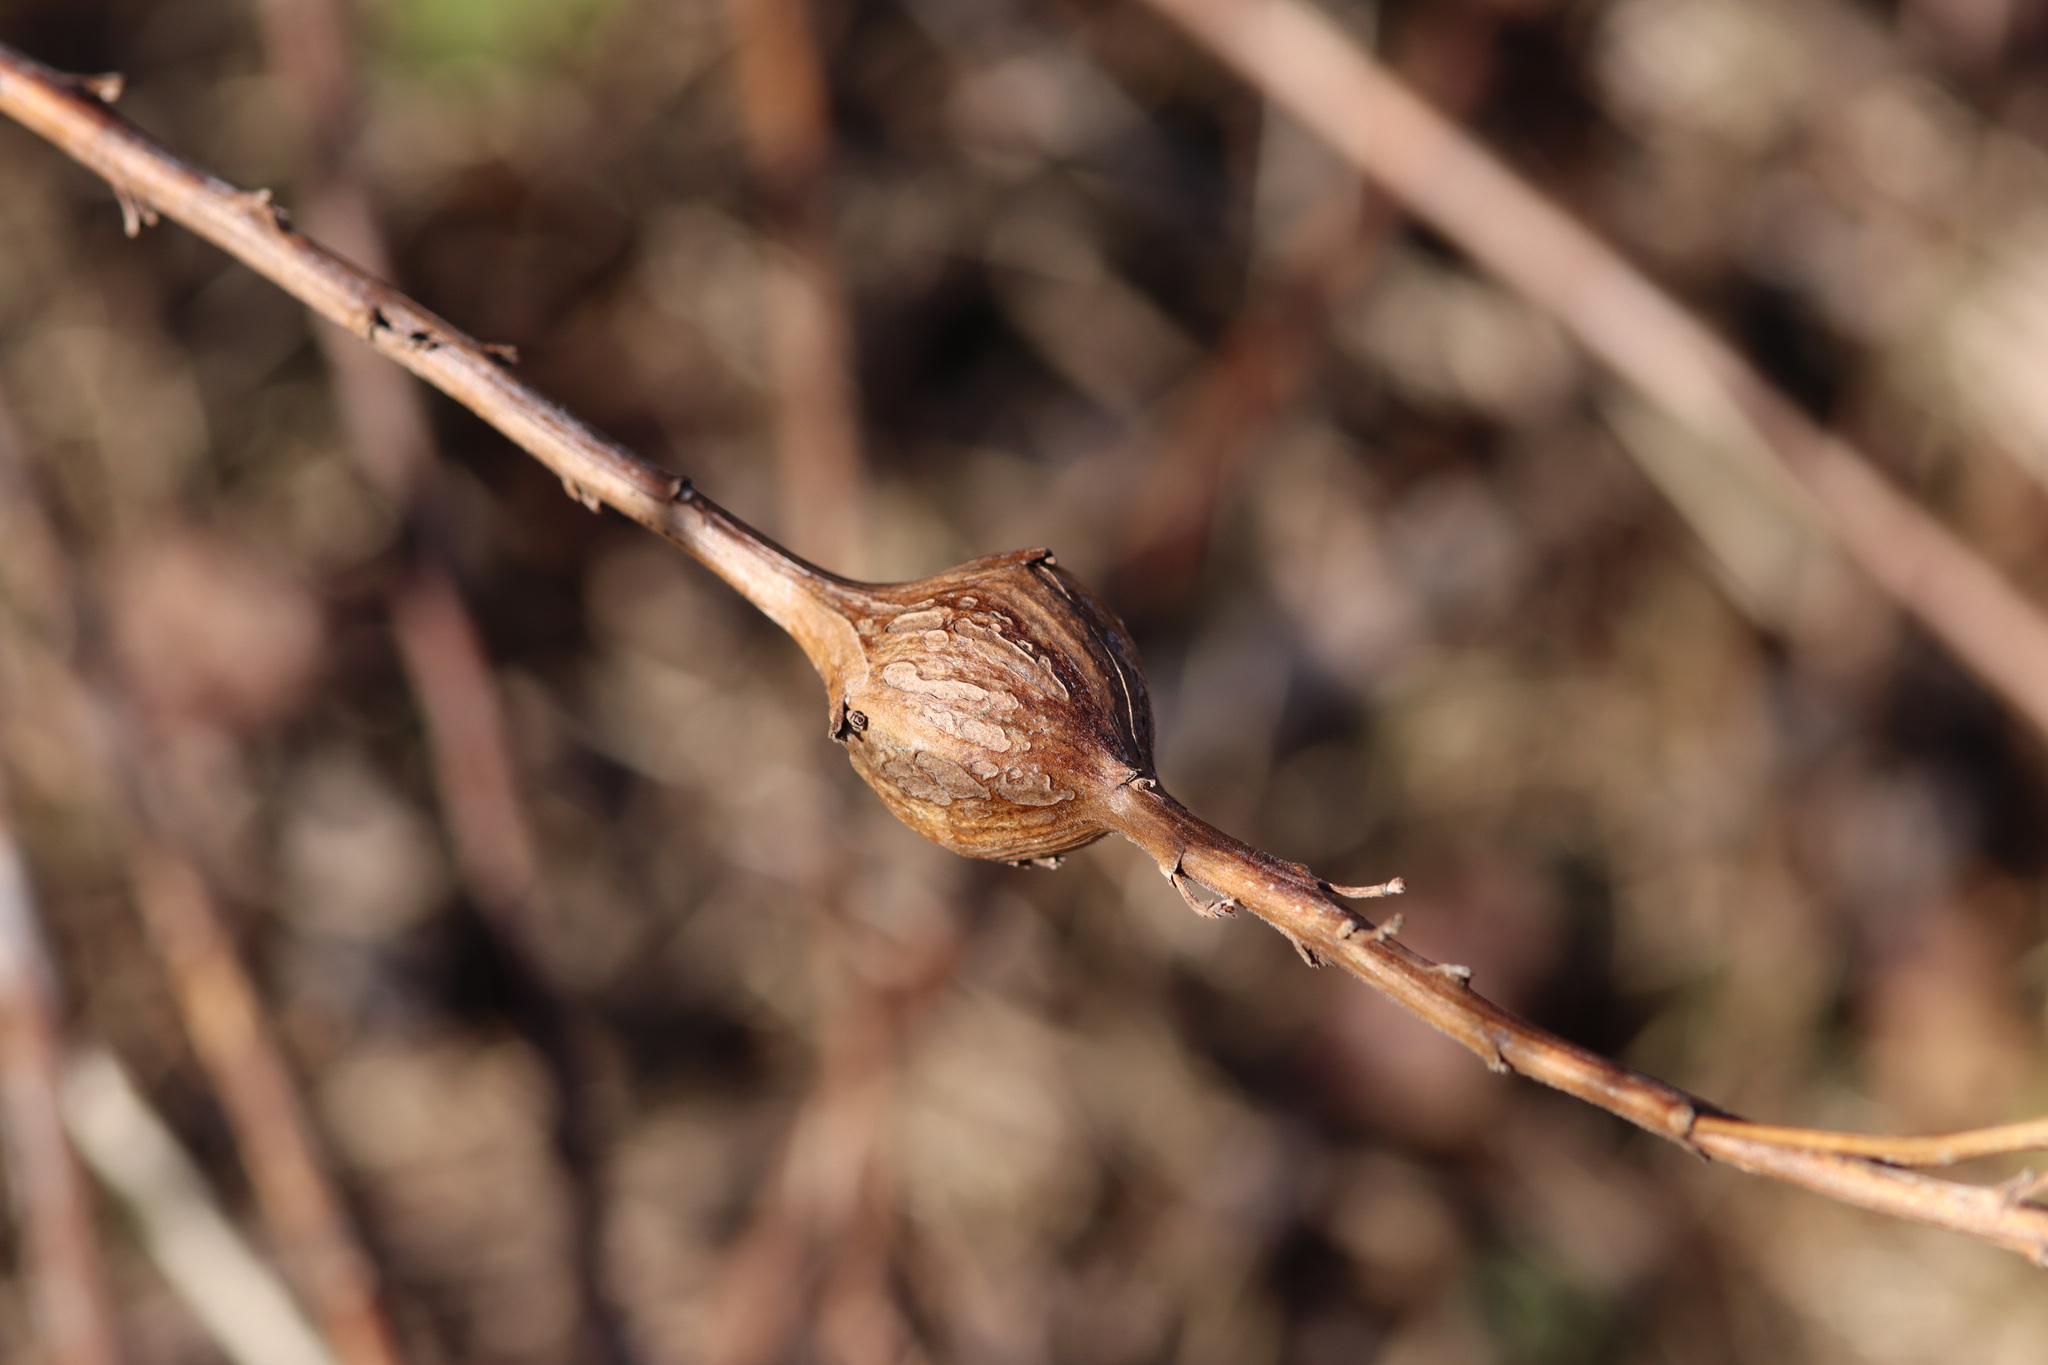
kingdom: Animalia
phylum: Arthropoda
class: Insecta
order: Diptera
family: Tephritidae
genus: Eurosta
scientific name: Eurosta solidaginis
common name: Goldenrod gall fly
